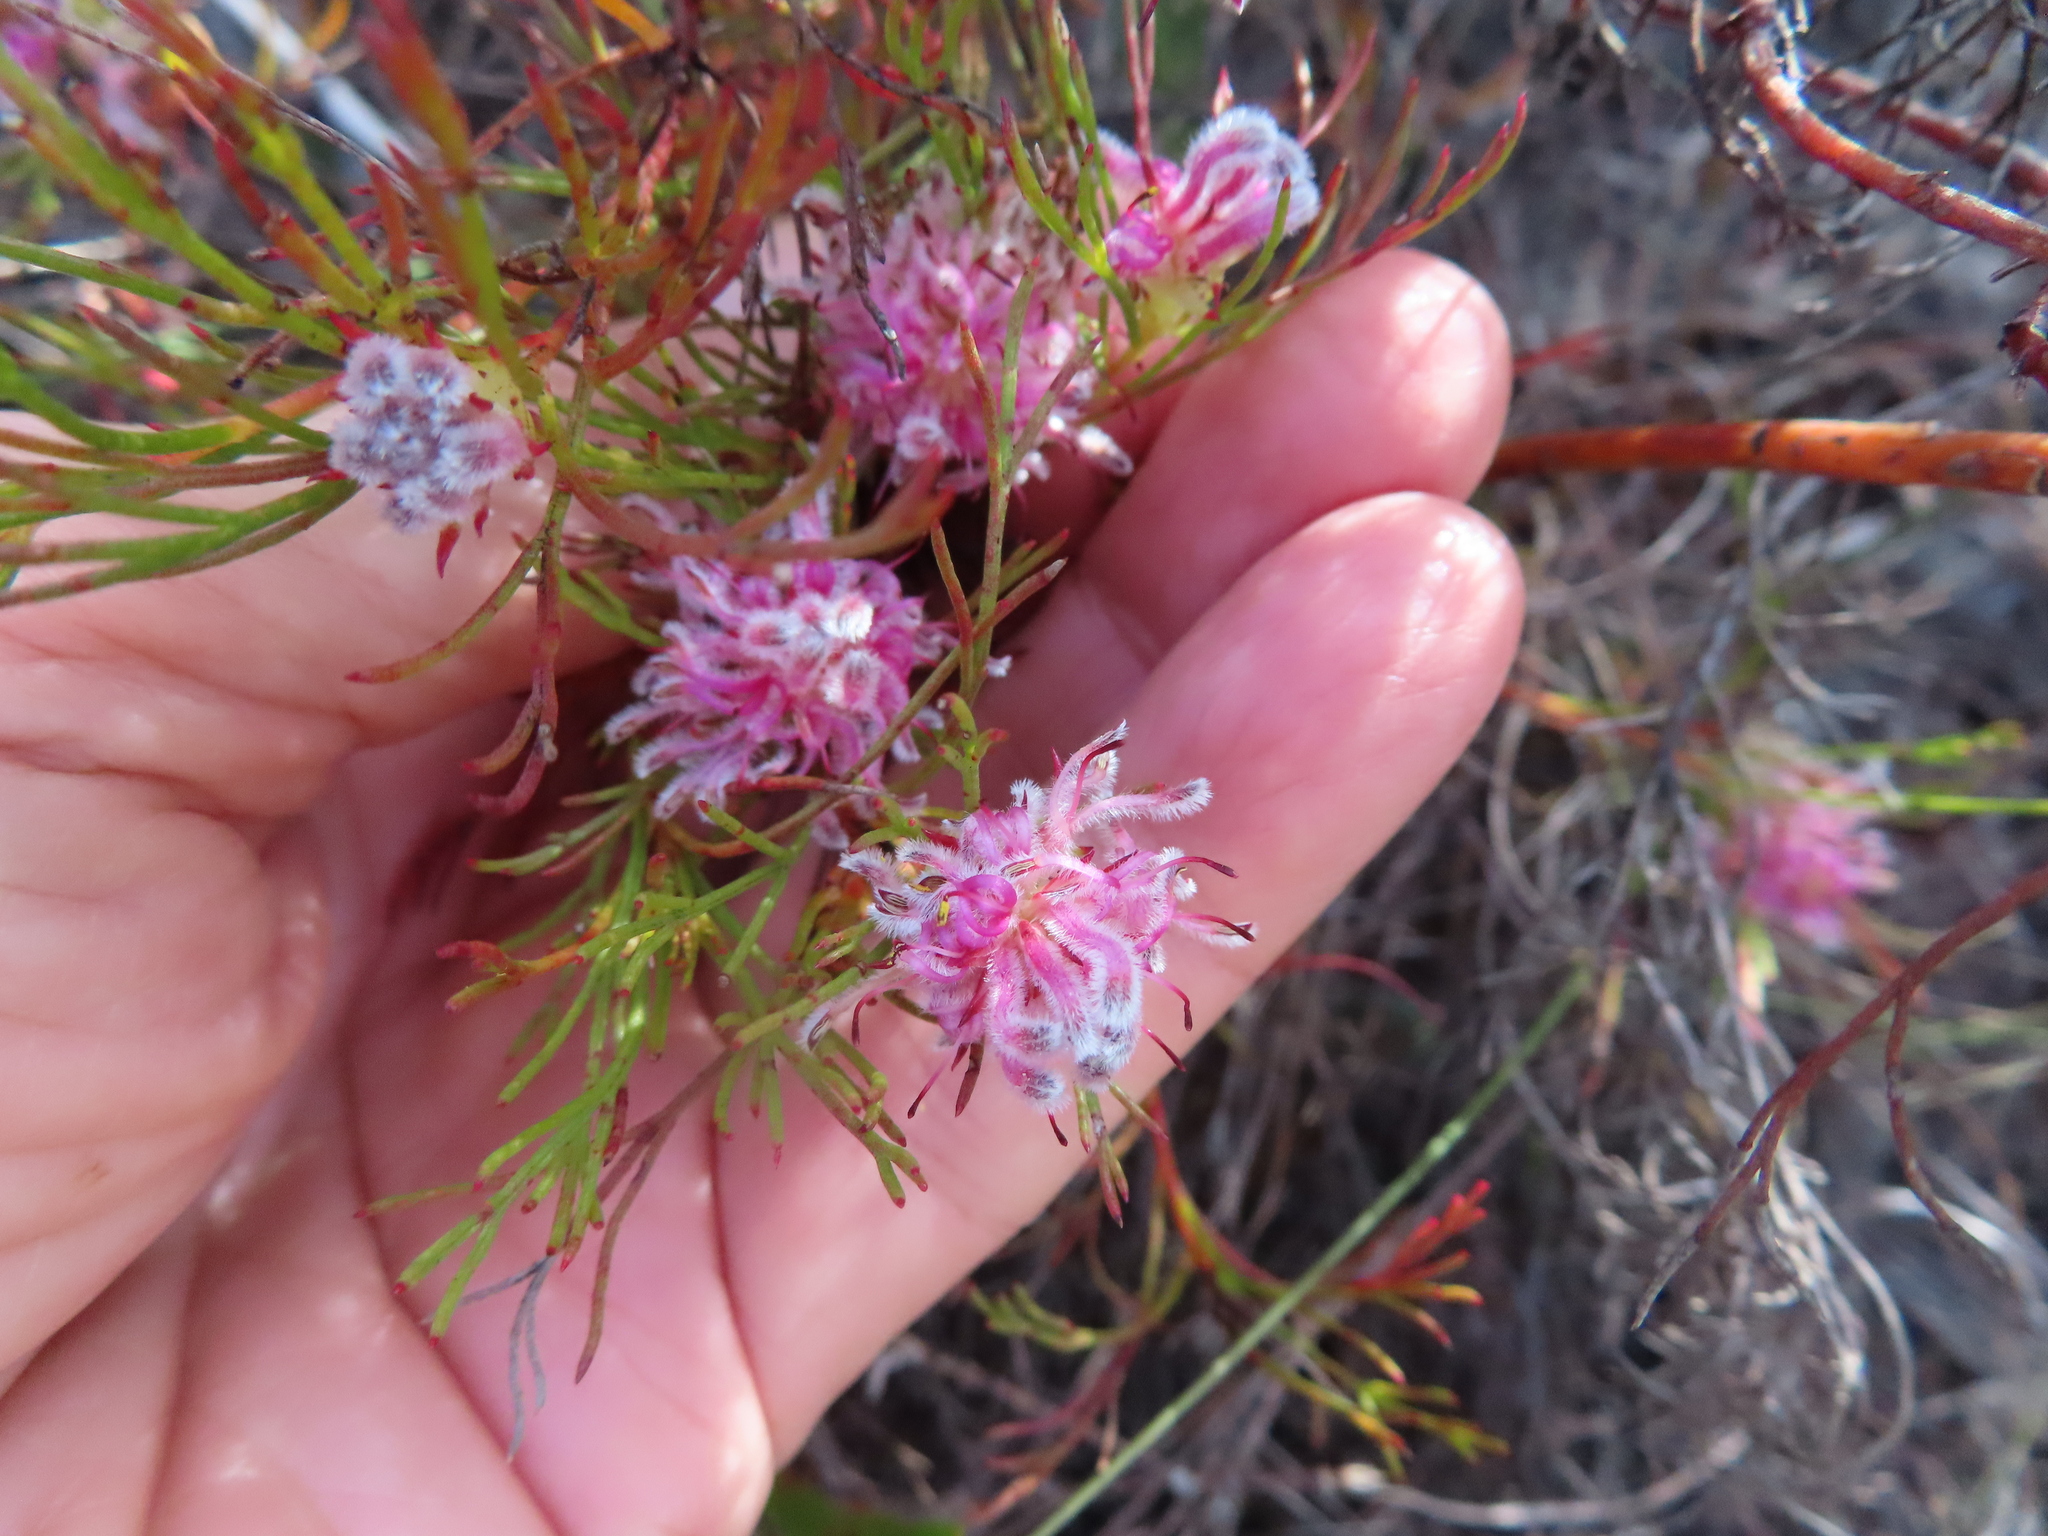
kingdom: Plantae
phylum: Tracheophyta
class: Magnoliopsida
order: Proteales
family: Proteaceae
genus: Serruria
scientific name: Serruria nervosa
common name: Fluted spiderhead
